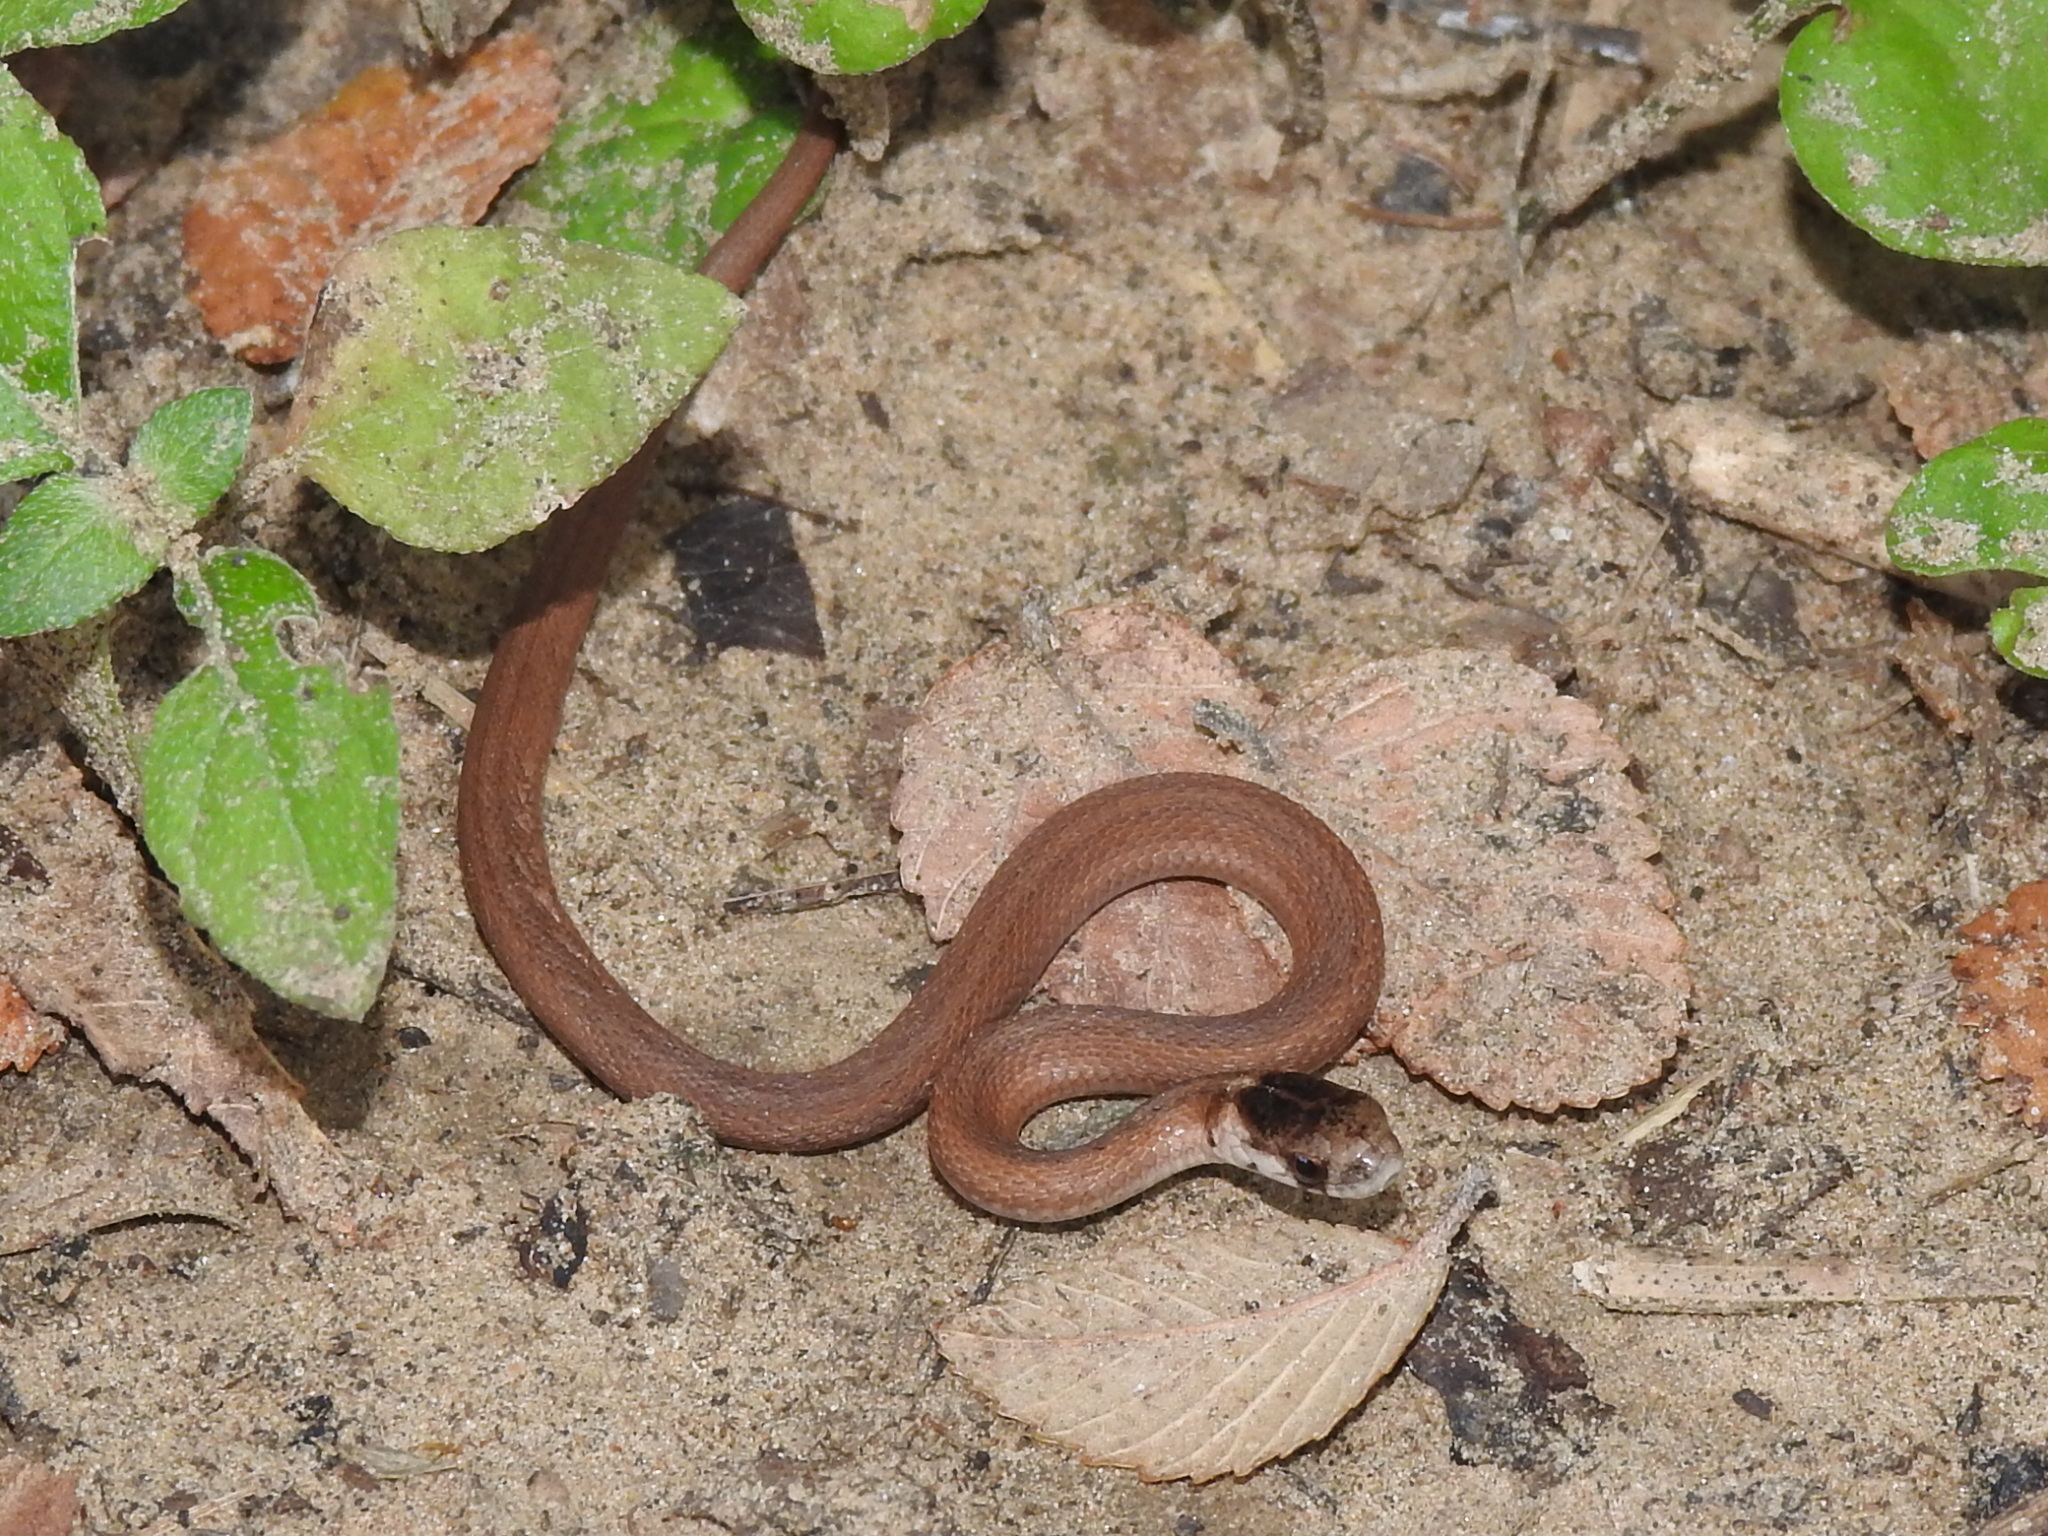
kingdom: Animalia
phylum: Chordata
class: Squamata
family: Colubridae
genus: Storeria
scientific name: Storeria dekayi
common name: (dekay’s) brown snake
